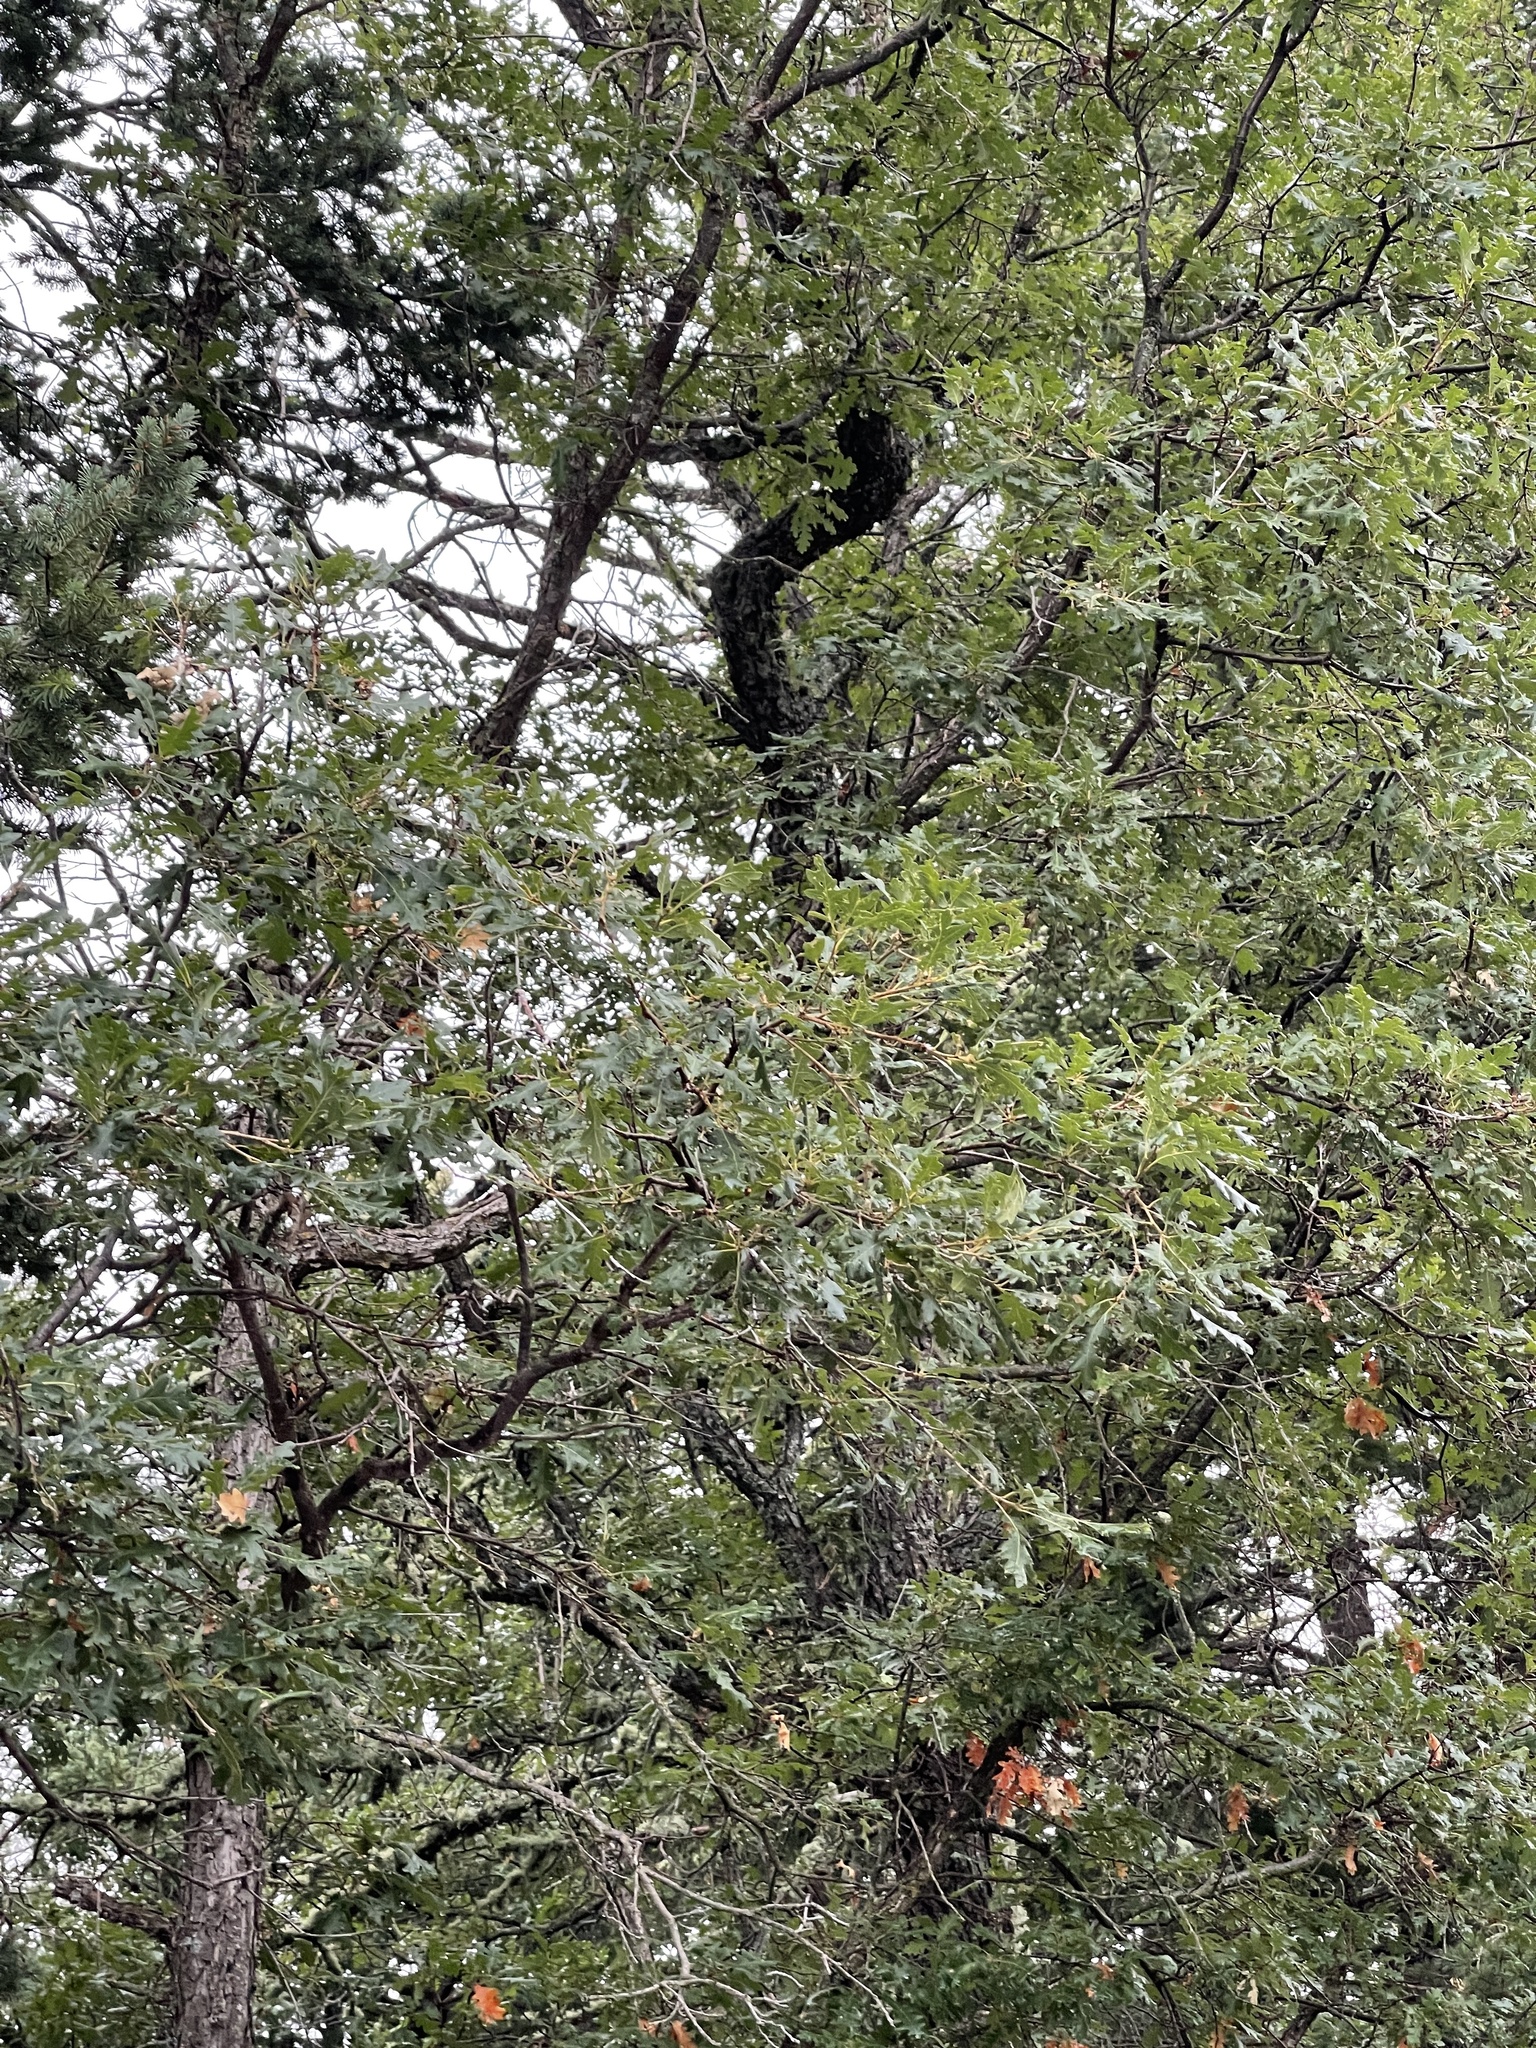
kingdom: Plantae
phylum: Tracheophyta
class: Magnoliopsida
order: Fagales
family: Fagaceae
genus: Quercus
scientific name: Quercus gambelii
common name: Gambel oak
